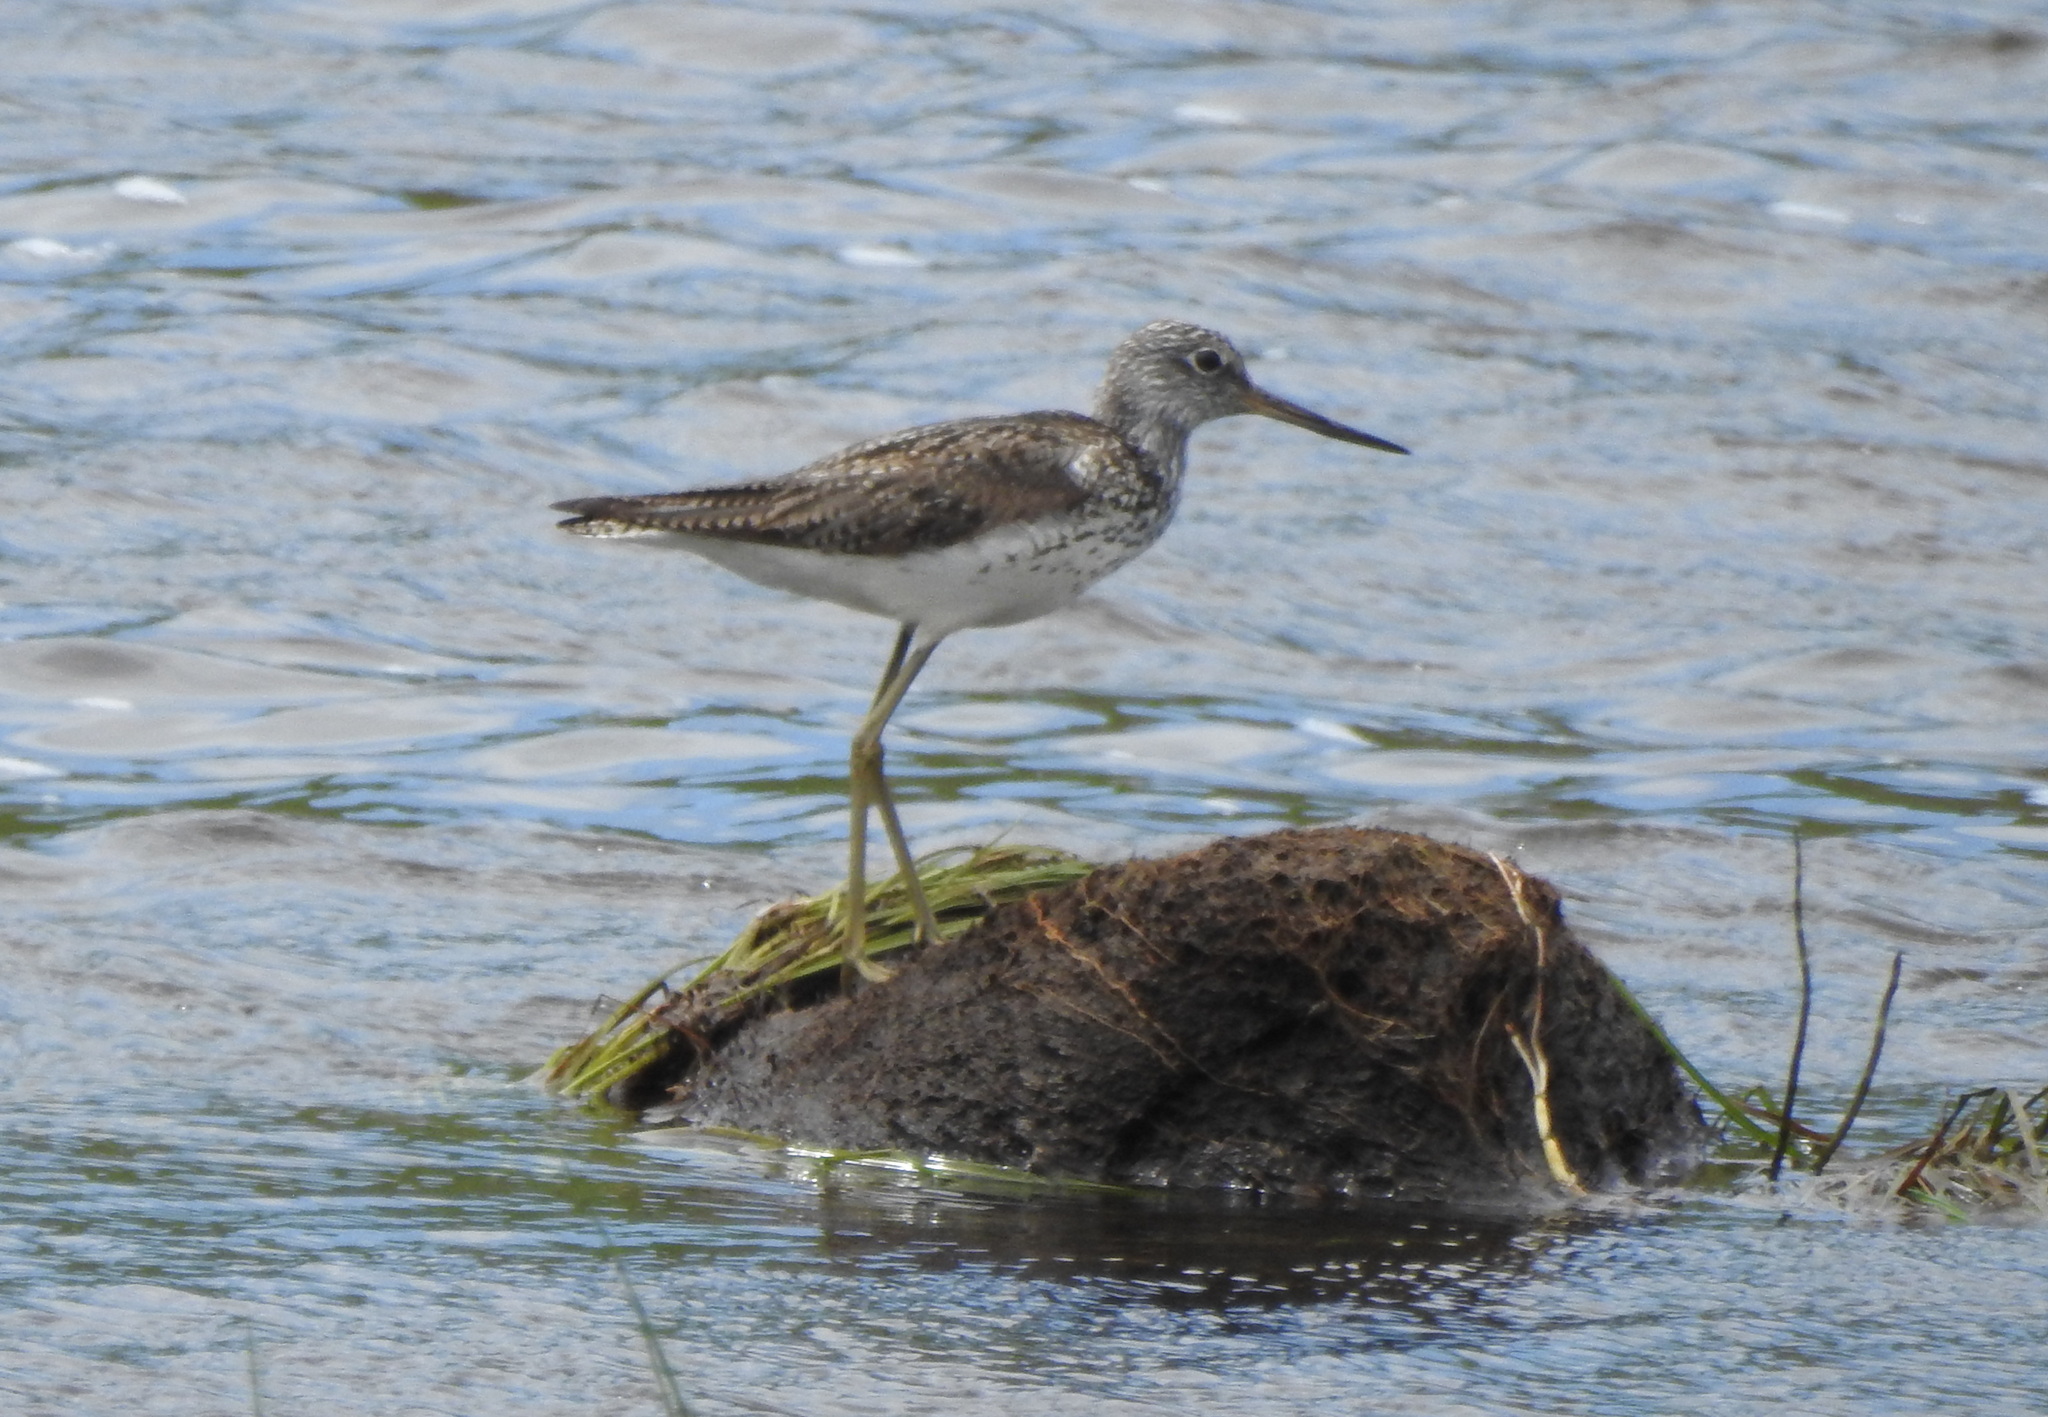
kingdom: Animalia
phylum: Chordata
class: Aves
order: Charadriiformes
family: Scolopacidae
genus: Tringa
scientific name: Tringa nebularia
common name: Common greenshank
